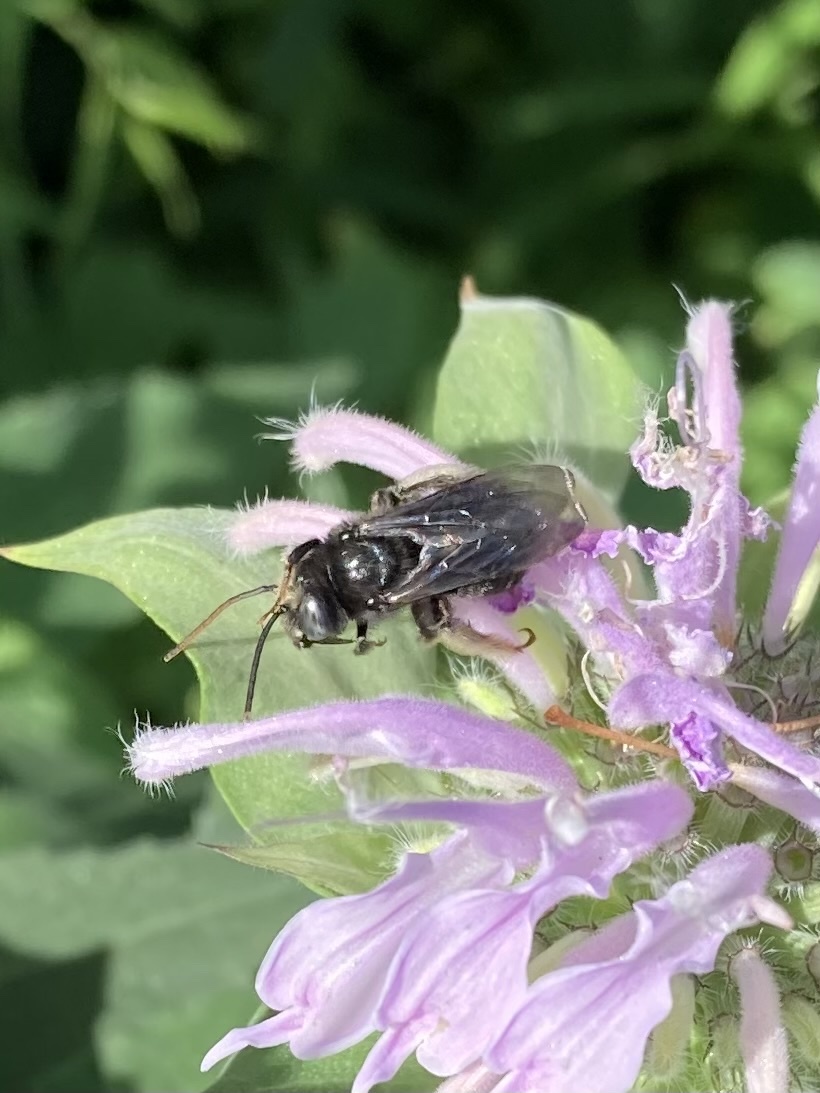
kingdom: Animalia
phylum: Arthropoda
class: Insecta
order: Hymenoptera
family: Apidae
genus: Melissodes
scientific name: Melissodes bimaculatus
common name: Two-spotted long-horned bee
